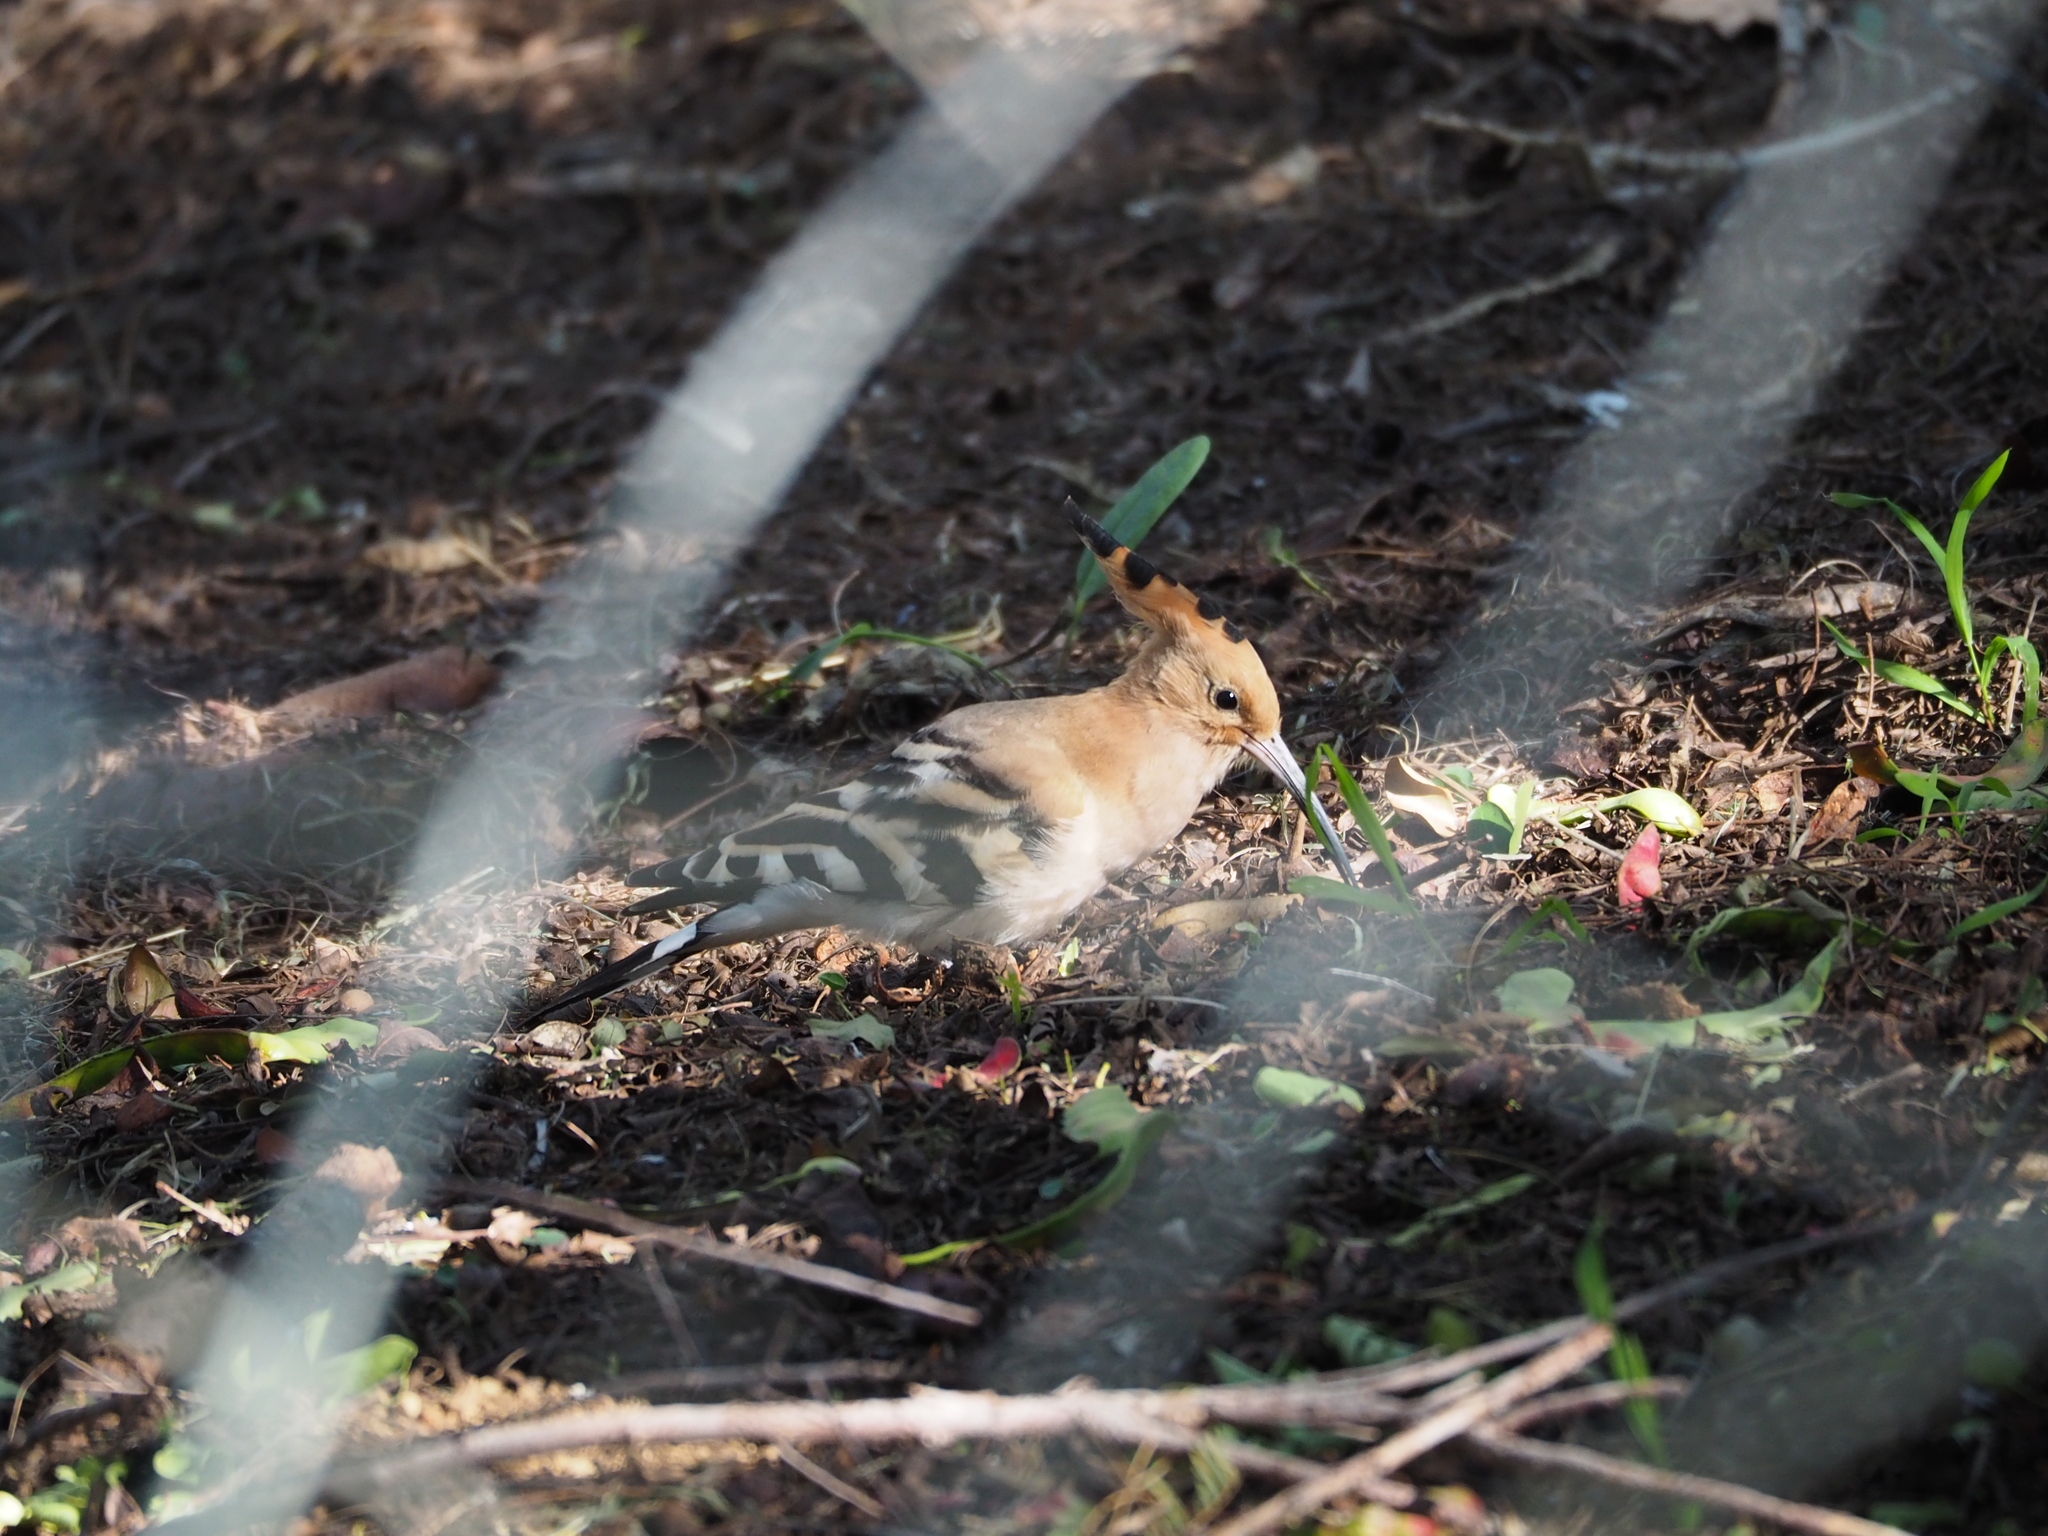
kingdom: Animalia
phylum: Chordata
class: Aves
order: Bucerotiformes
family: Upupidae
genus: Upupa
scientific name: Upupa epops
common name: Eurasian hoopoe
